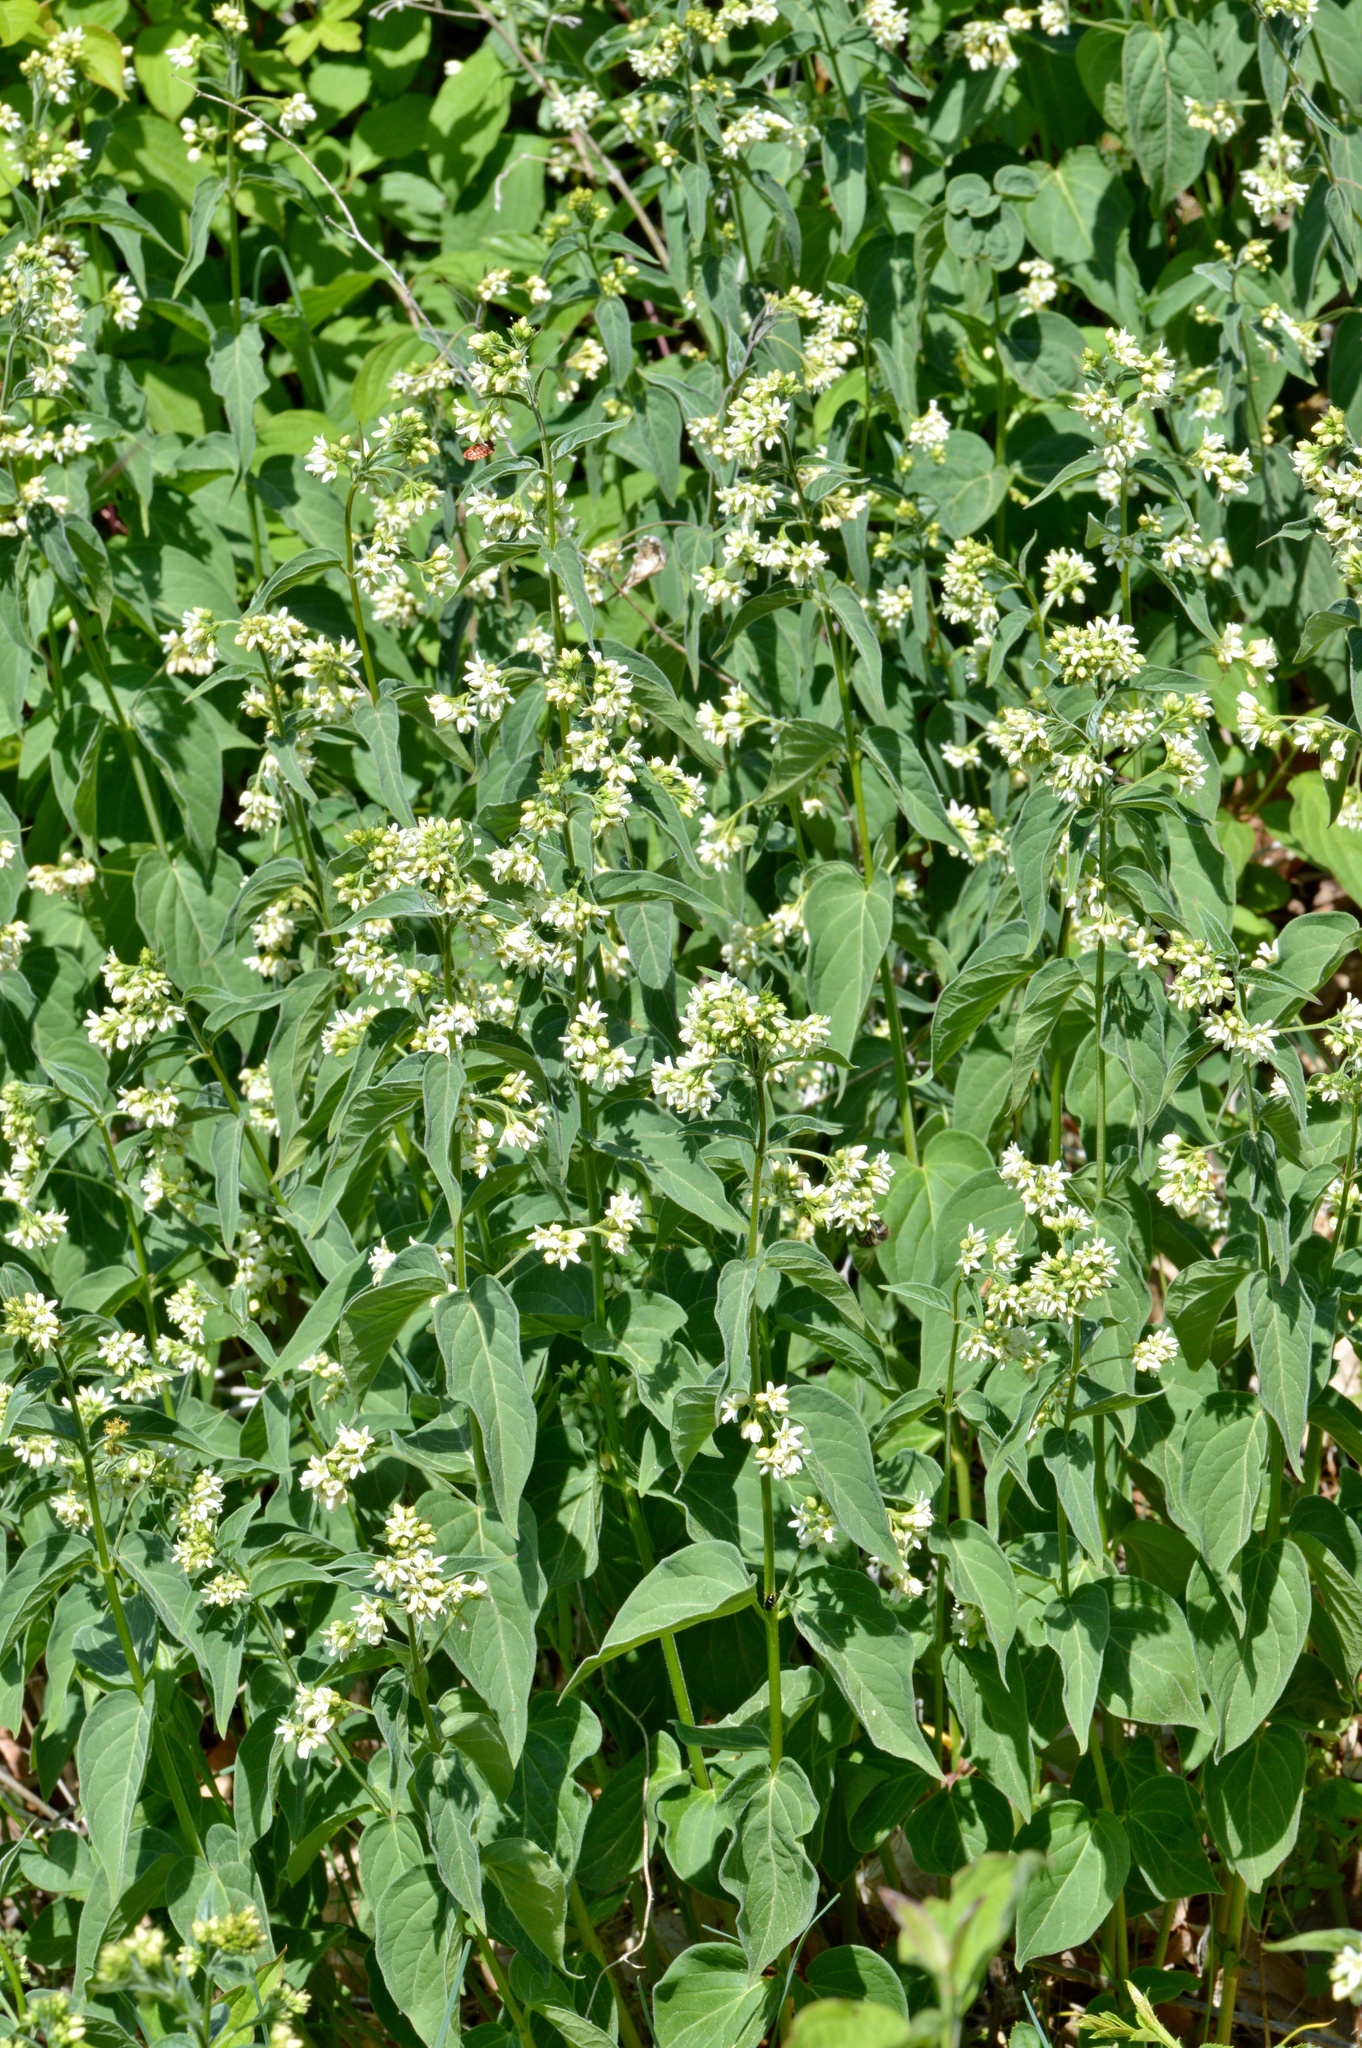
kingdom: Plantae
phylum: Tracheophyta
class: Magnoliopsida
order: Gentianales
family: Apocynaceae
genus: Vincetoxicum
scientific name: Vincetoxicum hirundinaria
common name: White swallowwort
